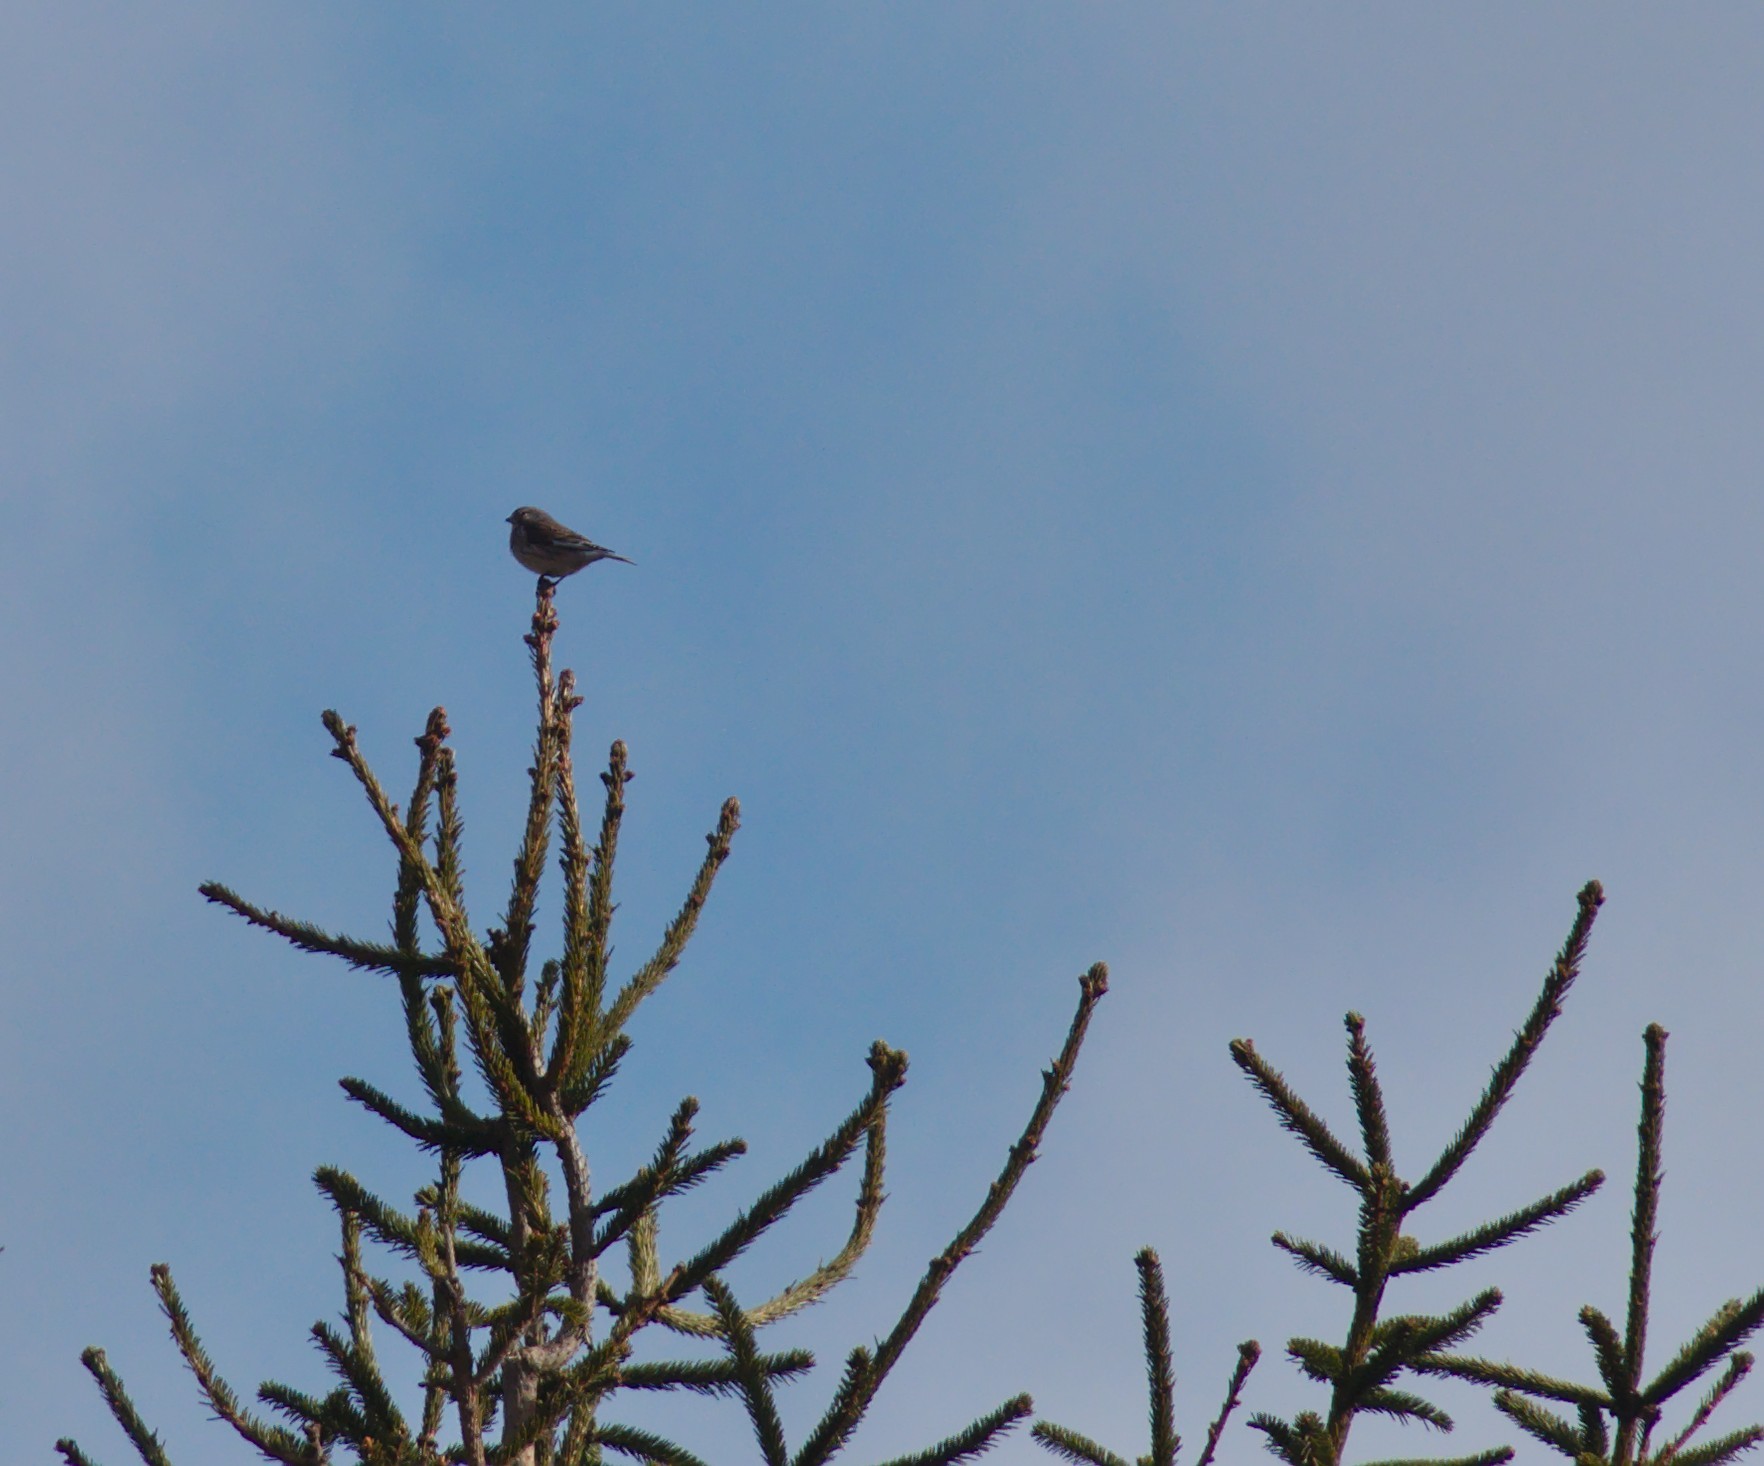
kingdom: Animalia
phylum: Chordata
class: Aves
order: Passeriformes
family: Fringillidae
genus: Linaria
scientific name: Linaria cannabina
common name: Common linnet
